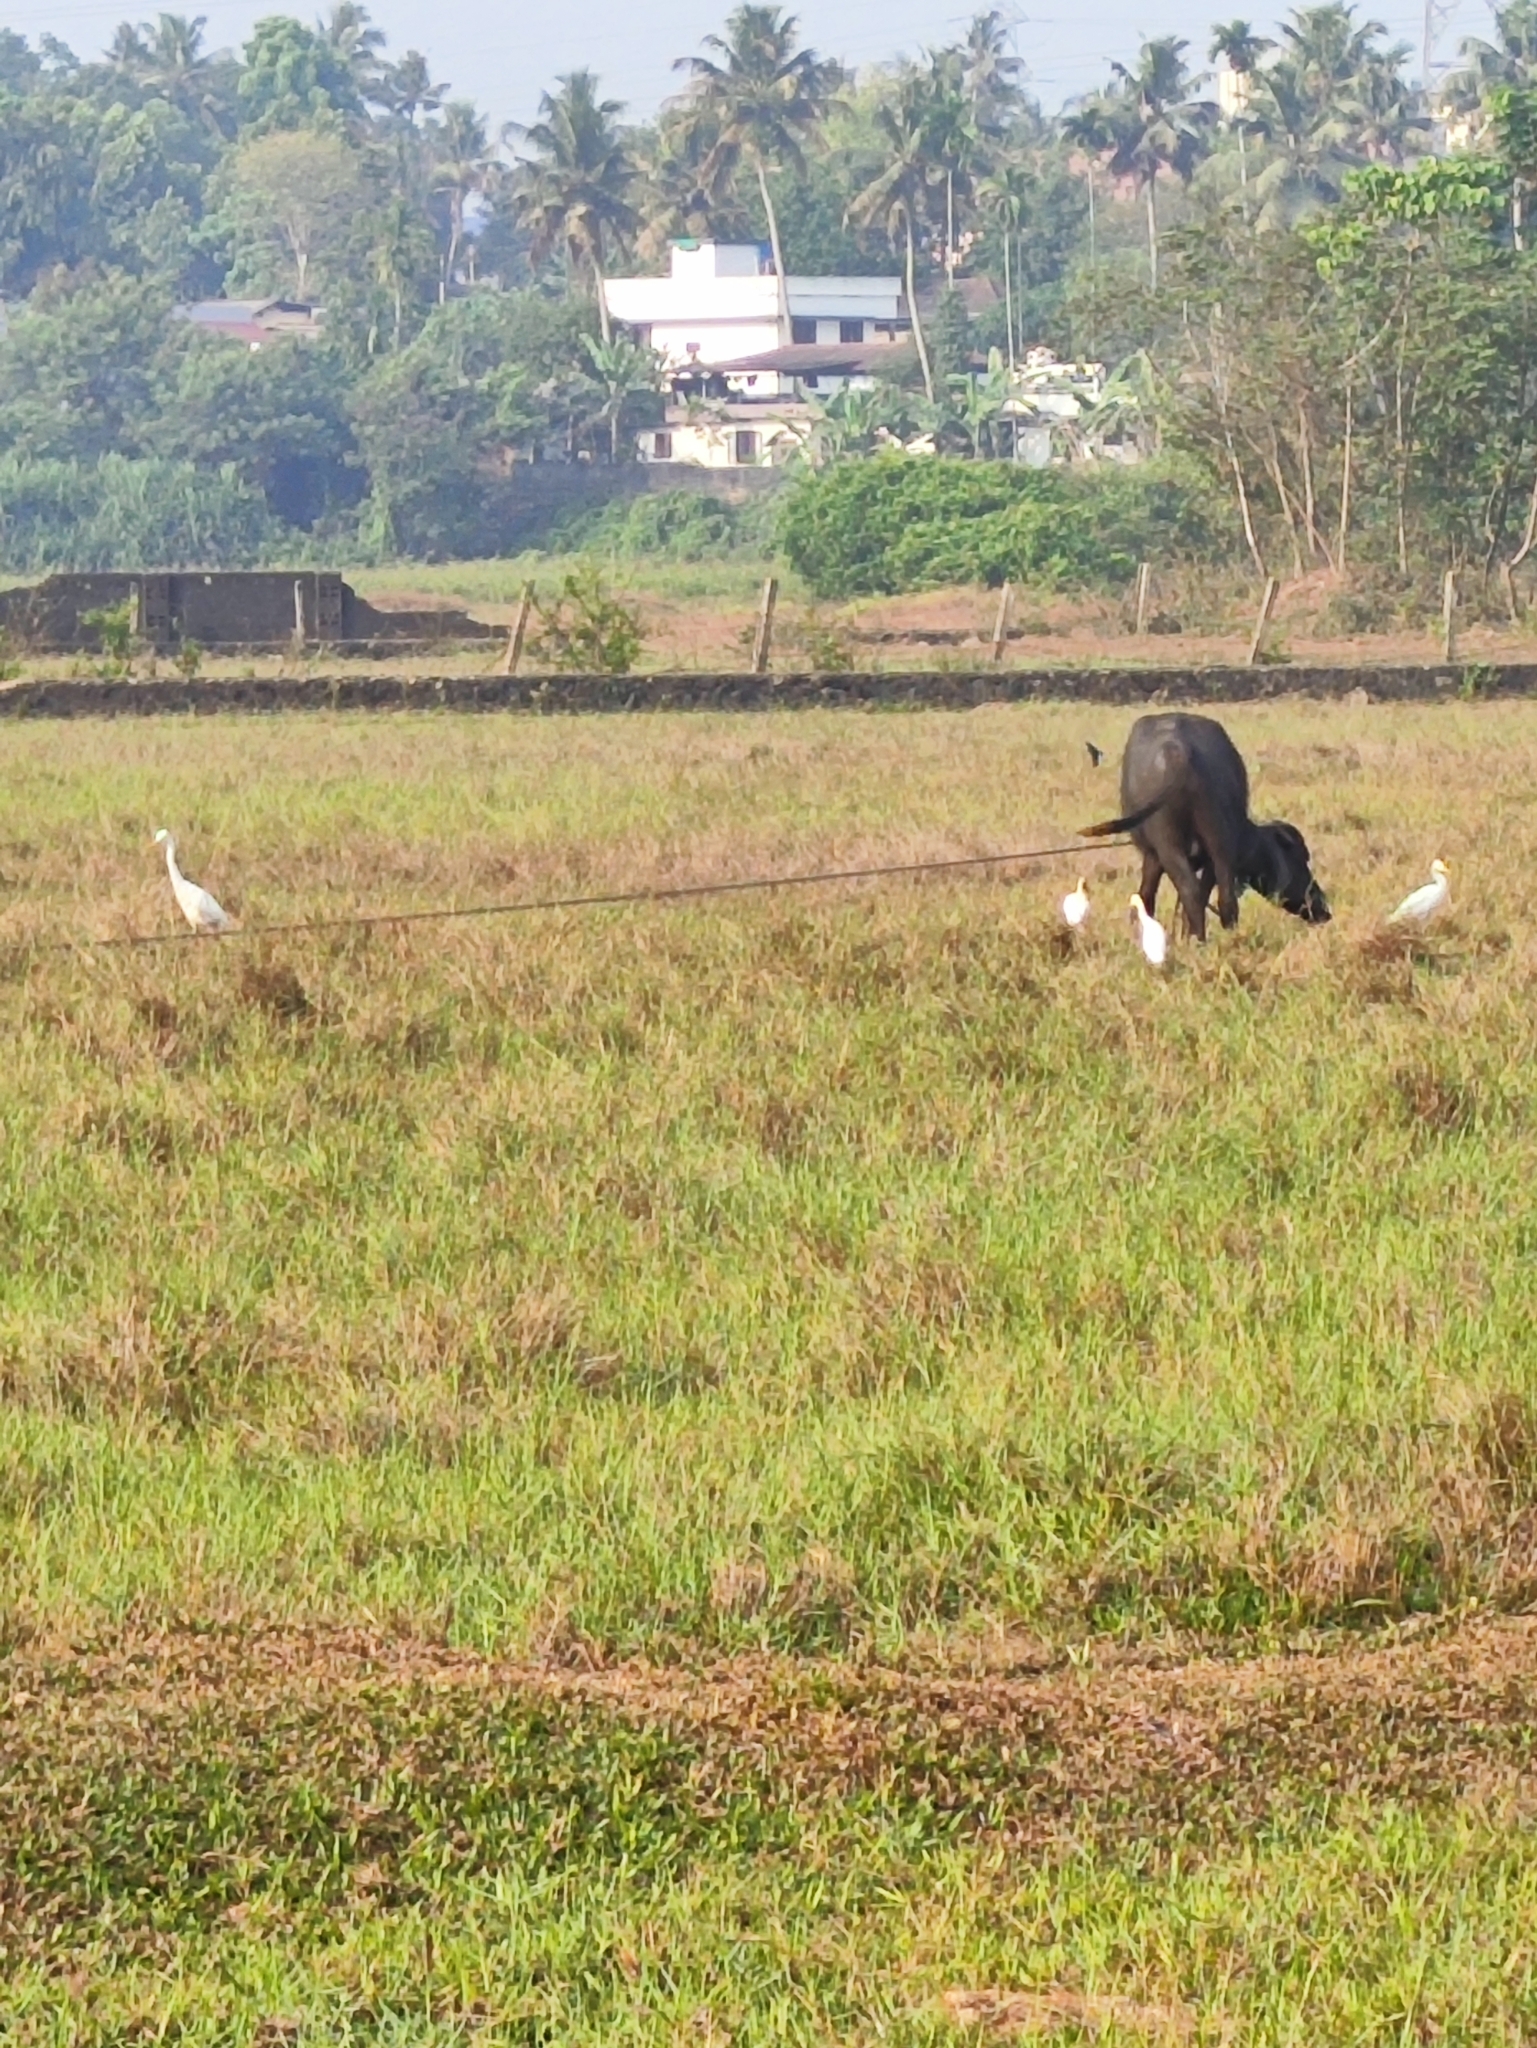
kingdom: Animalia
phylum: Chordata
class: Mammalia
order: Artiodactyla
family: Bovidae
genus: Bubalus
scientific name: Bubalus bubalis
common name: Water buffalo
